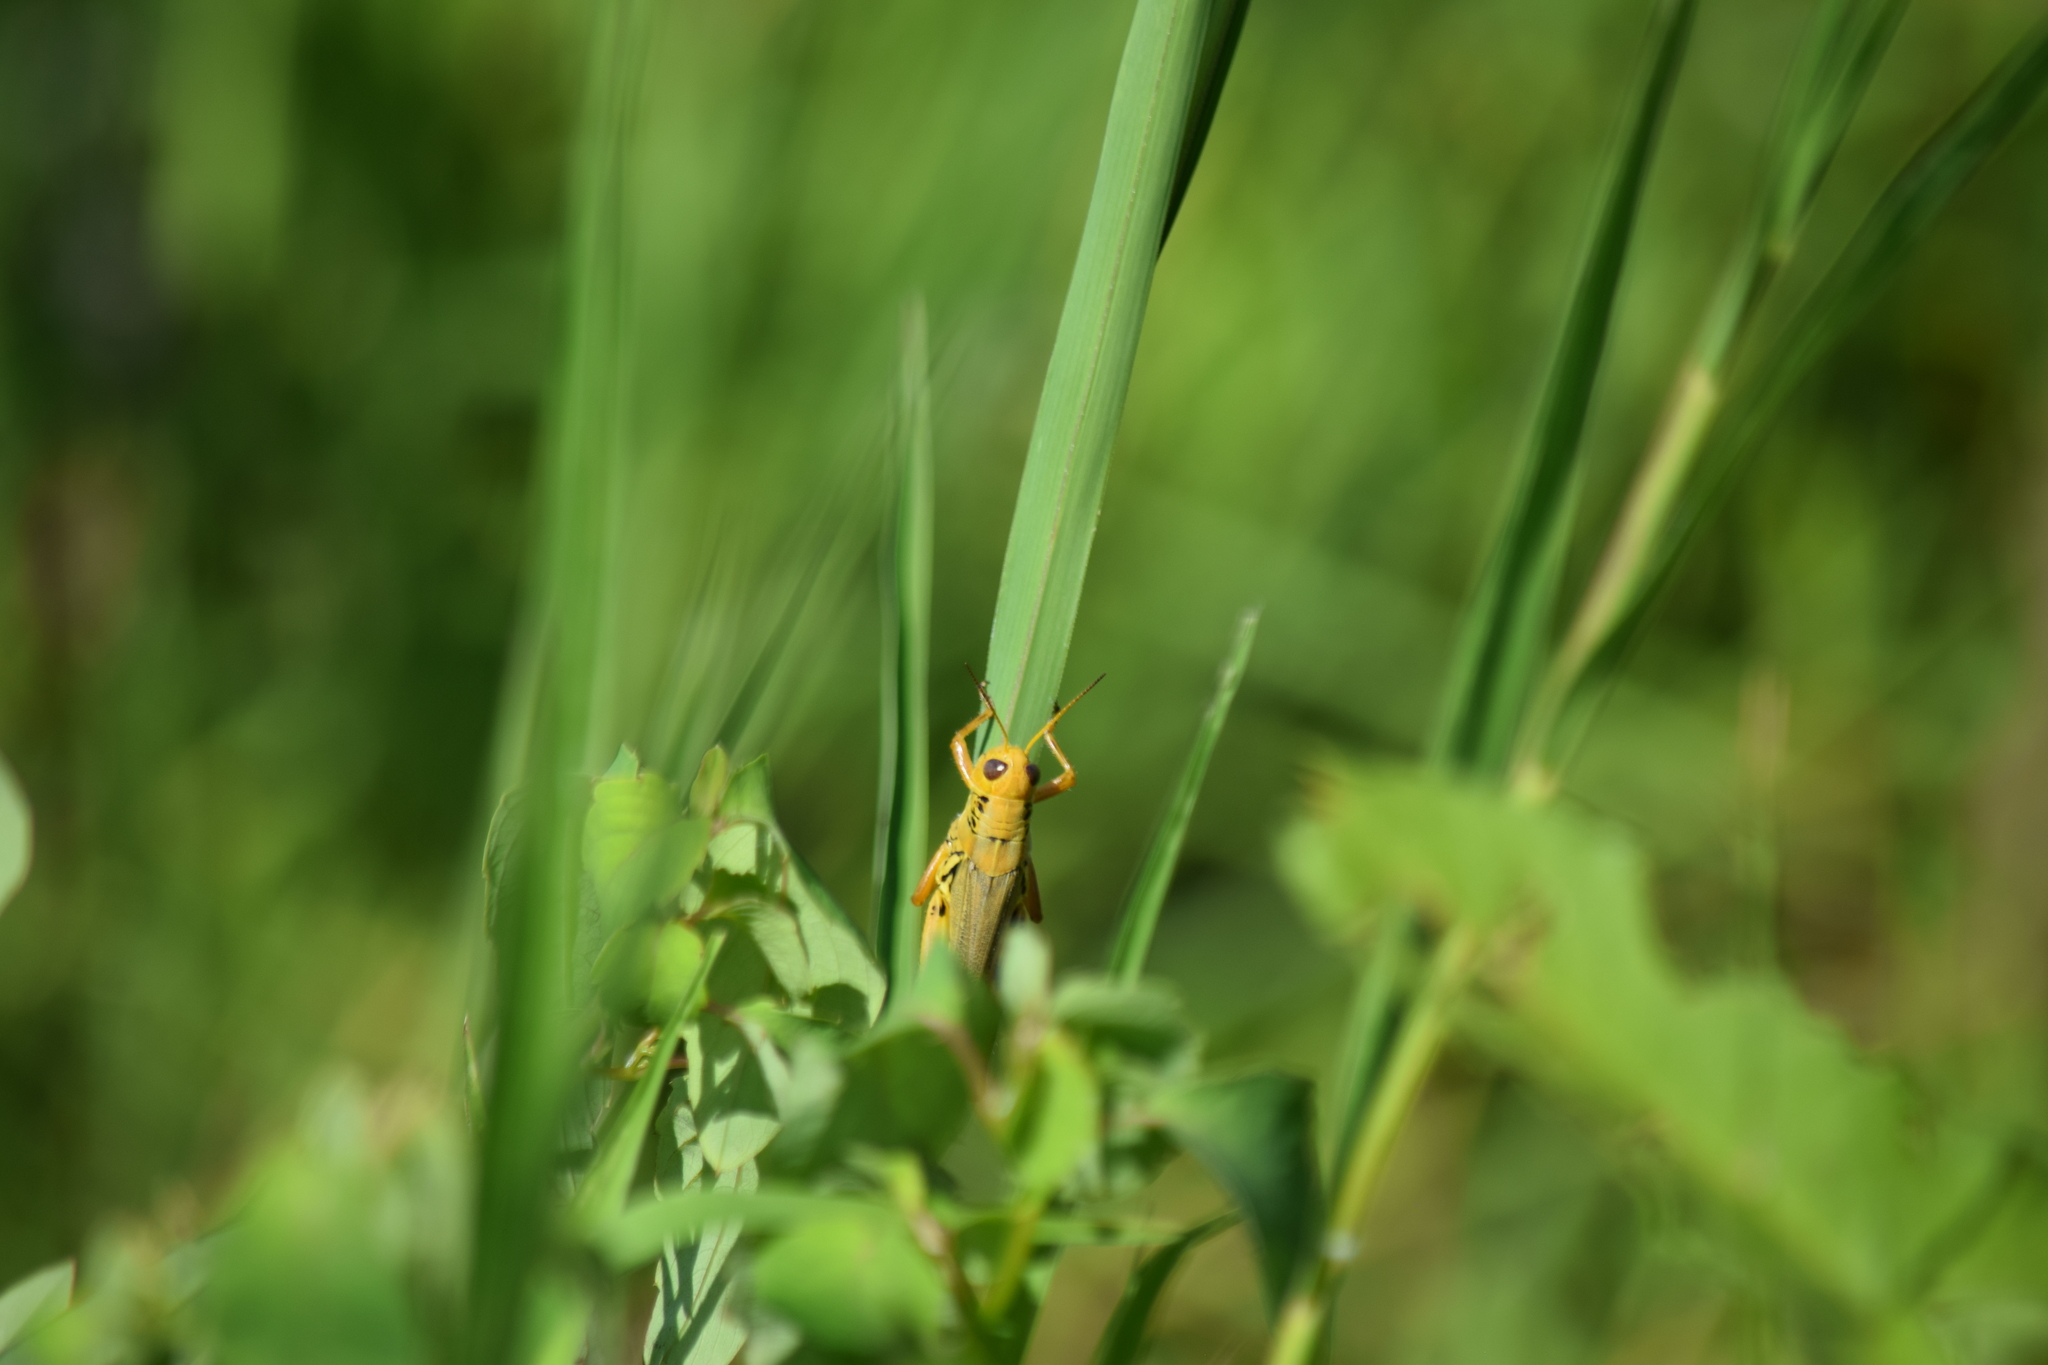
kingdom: Animalia
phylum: Arthropoda
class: Insecta
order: Orthoptera
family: Acrididae
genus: Melanoplus
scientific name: Melanoplus differentialis
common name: Differential grasshopper
